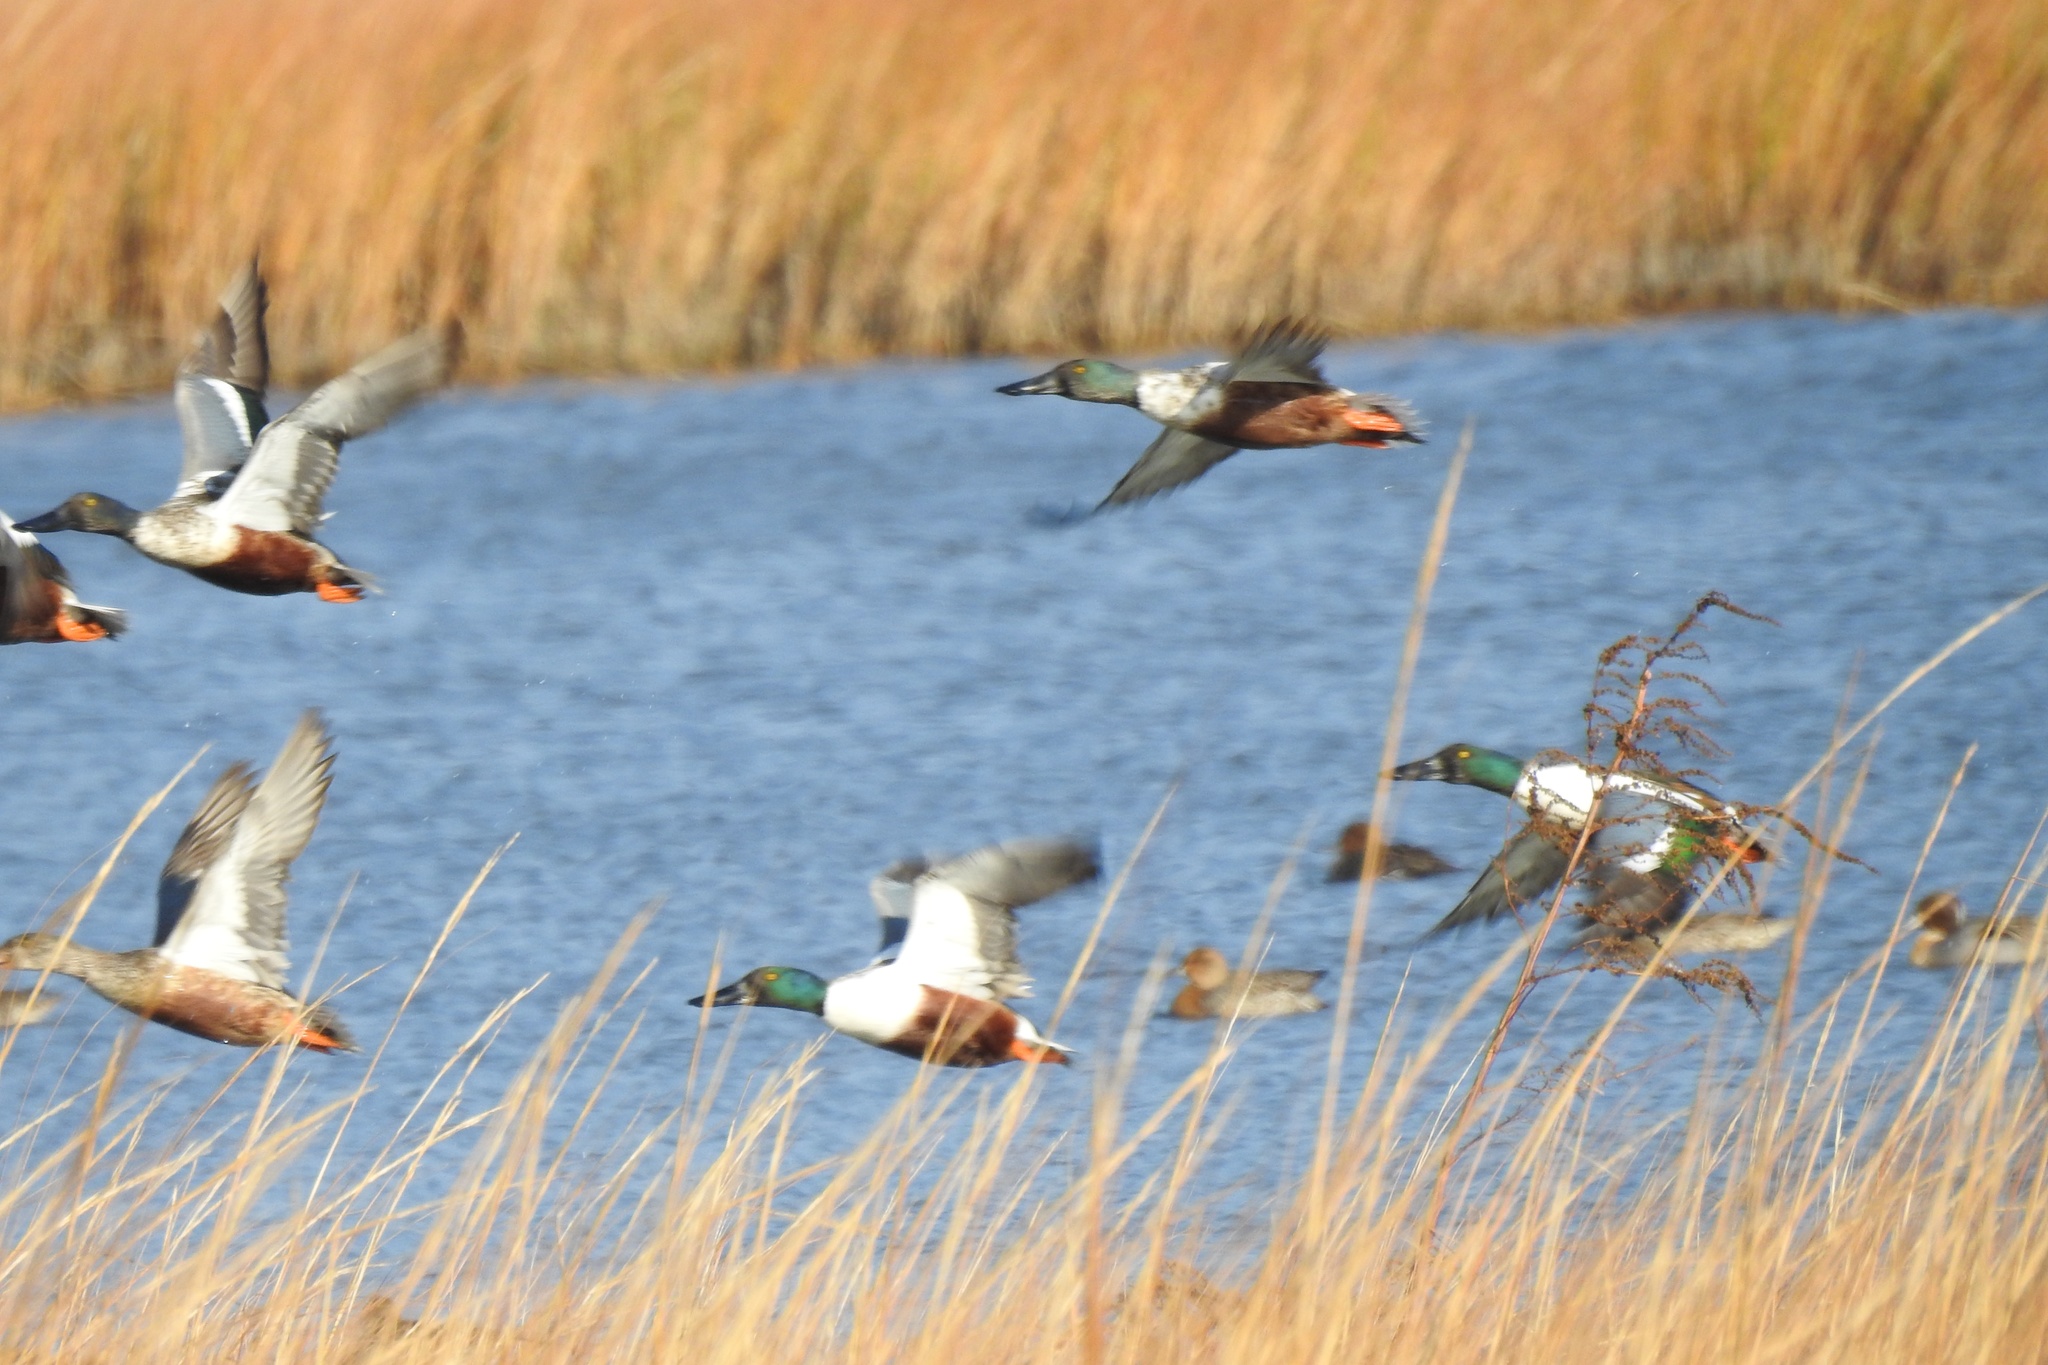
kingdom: Animalia
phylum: Chordata
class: Aves
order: Anseriformes
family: Anatidae
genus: Spatula
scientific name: Spatula clypeata
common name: Northern shoveler
